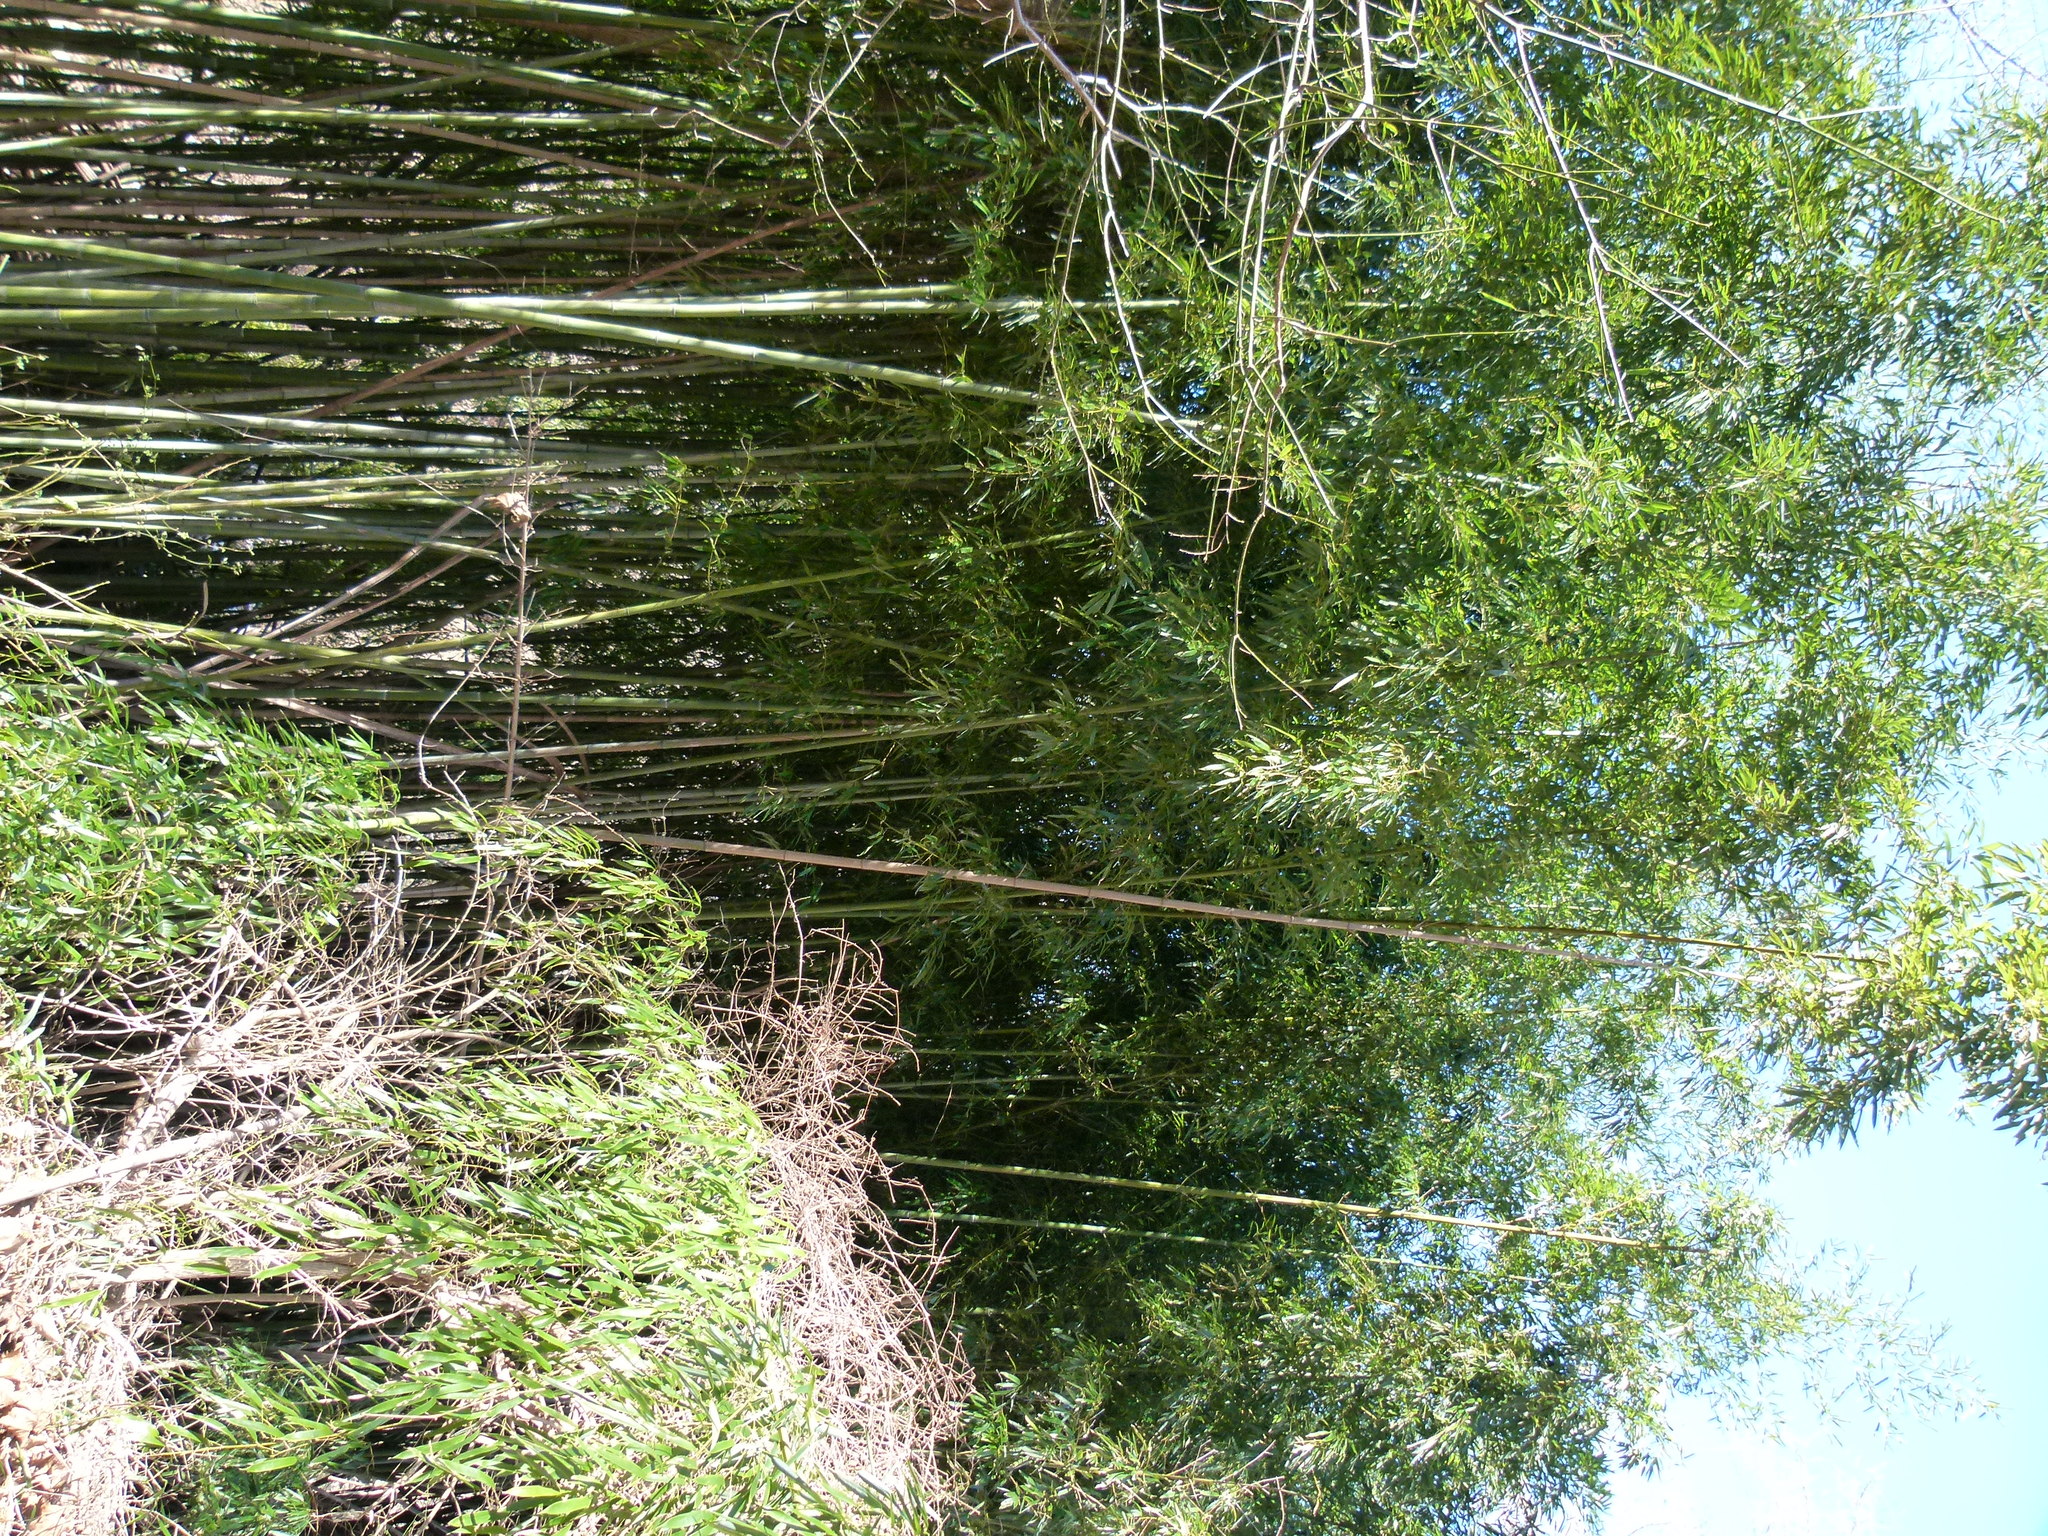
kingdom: Plantae
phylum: Tracheophyta
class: Liliopsida
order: Poales
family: Poaceae
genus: Phyllostachys
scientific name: Phyllostachys aurea
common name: Golden bamboo
